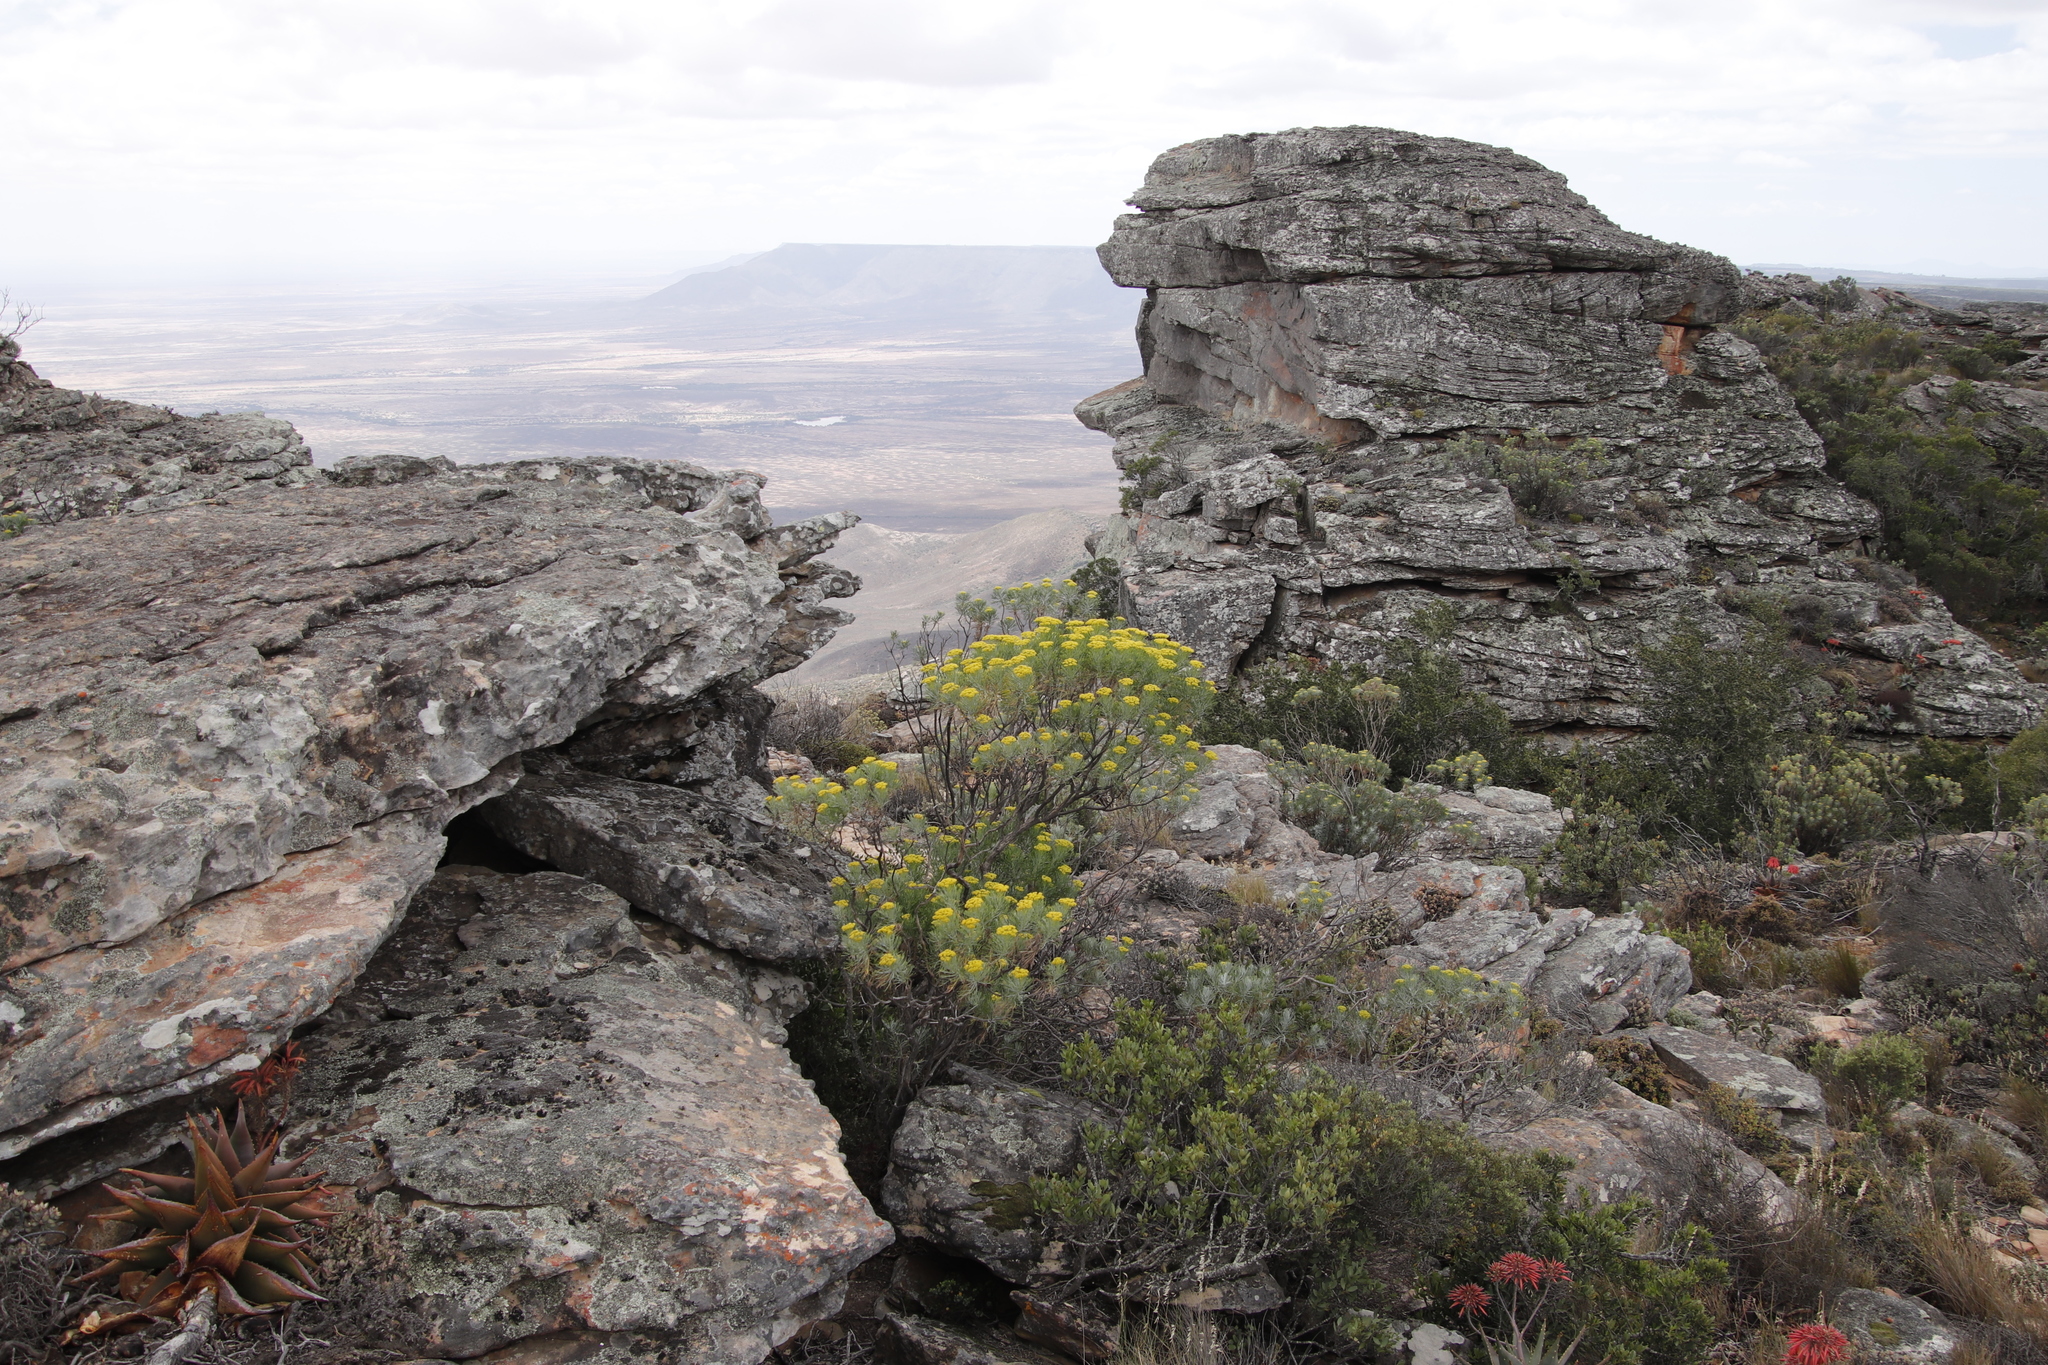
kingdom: Plantae
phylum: Tracheophyta
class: Magnoliopsida
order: Asterales
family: Asteraceae
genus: Hymenolepis
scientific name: Hymenolepis crithmifolia
